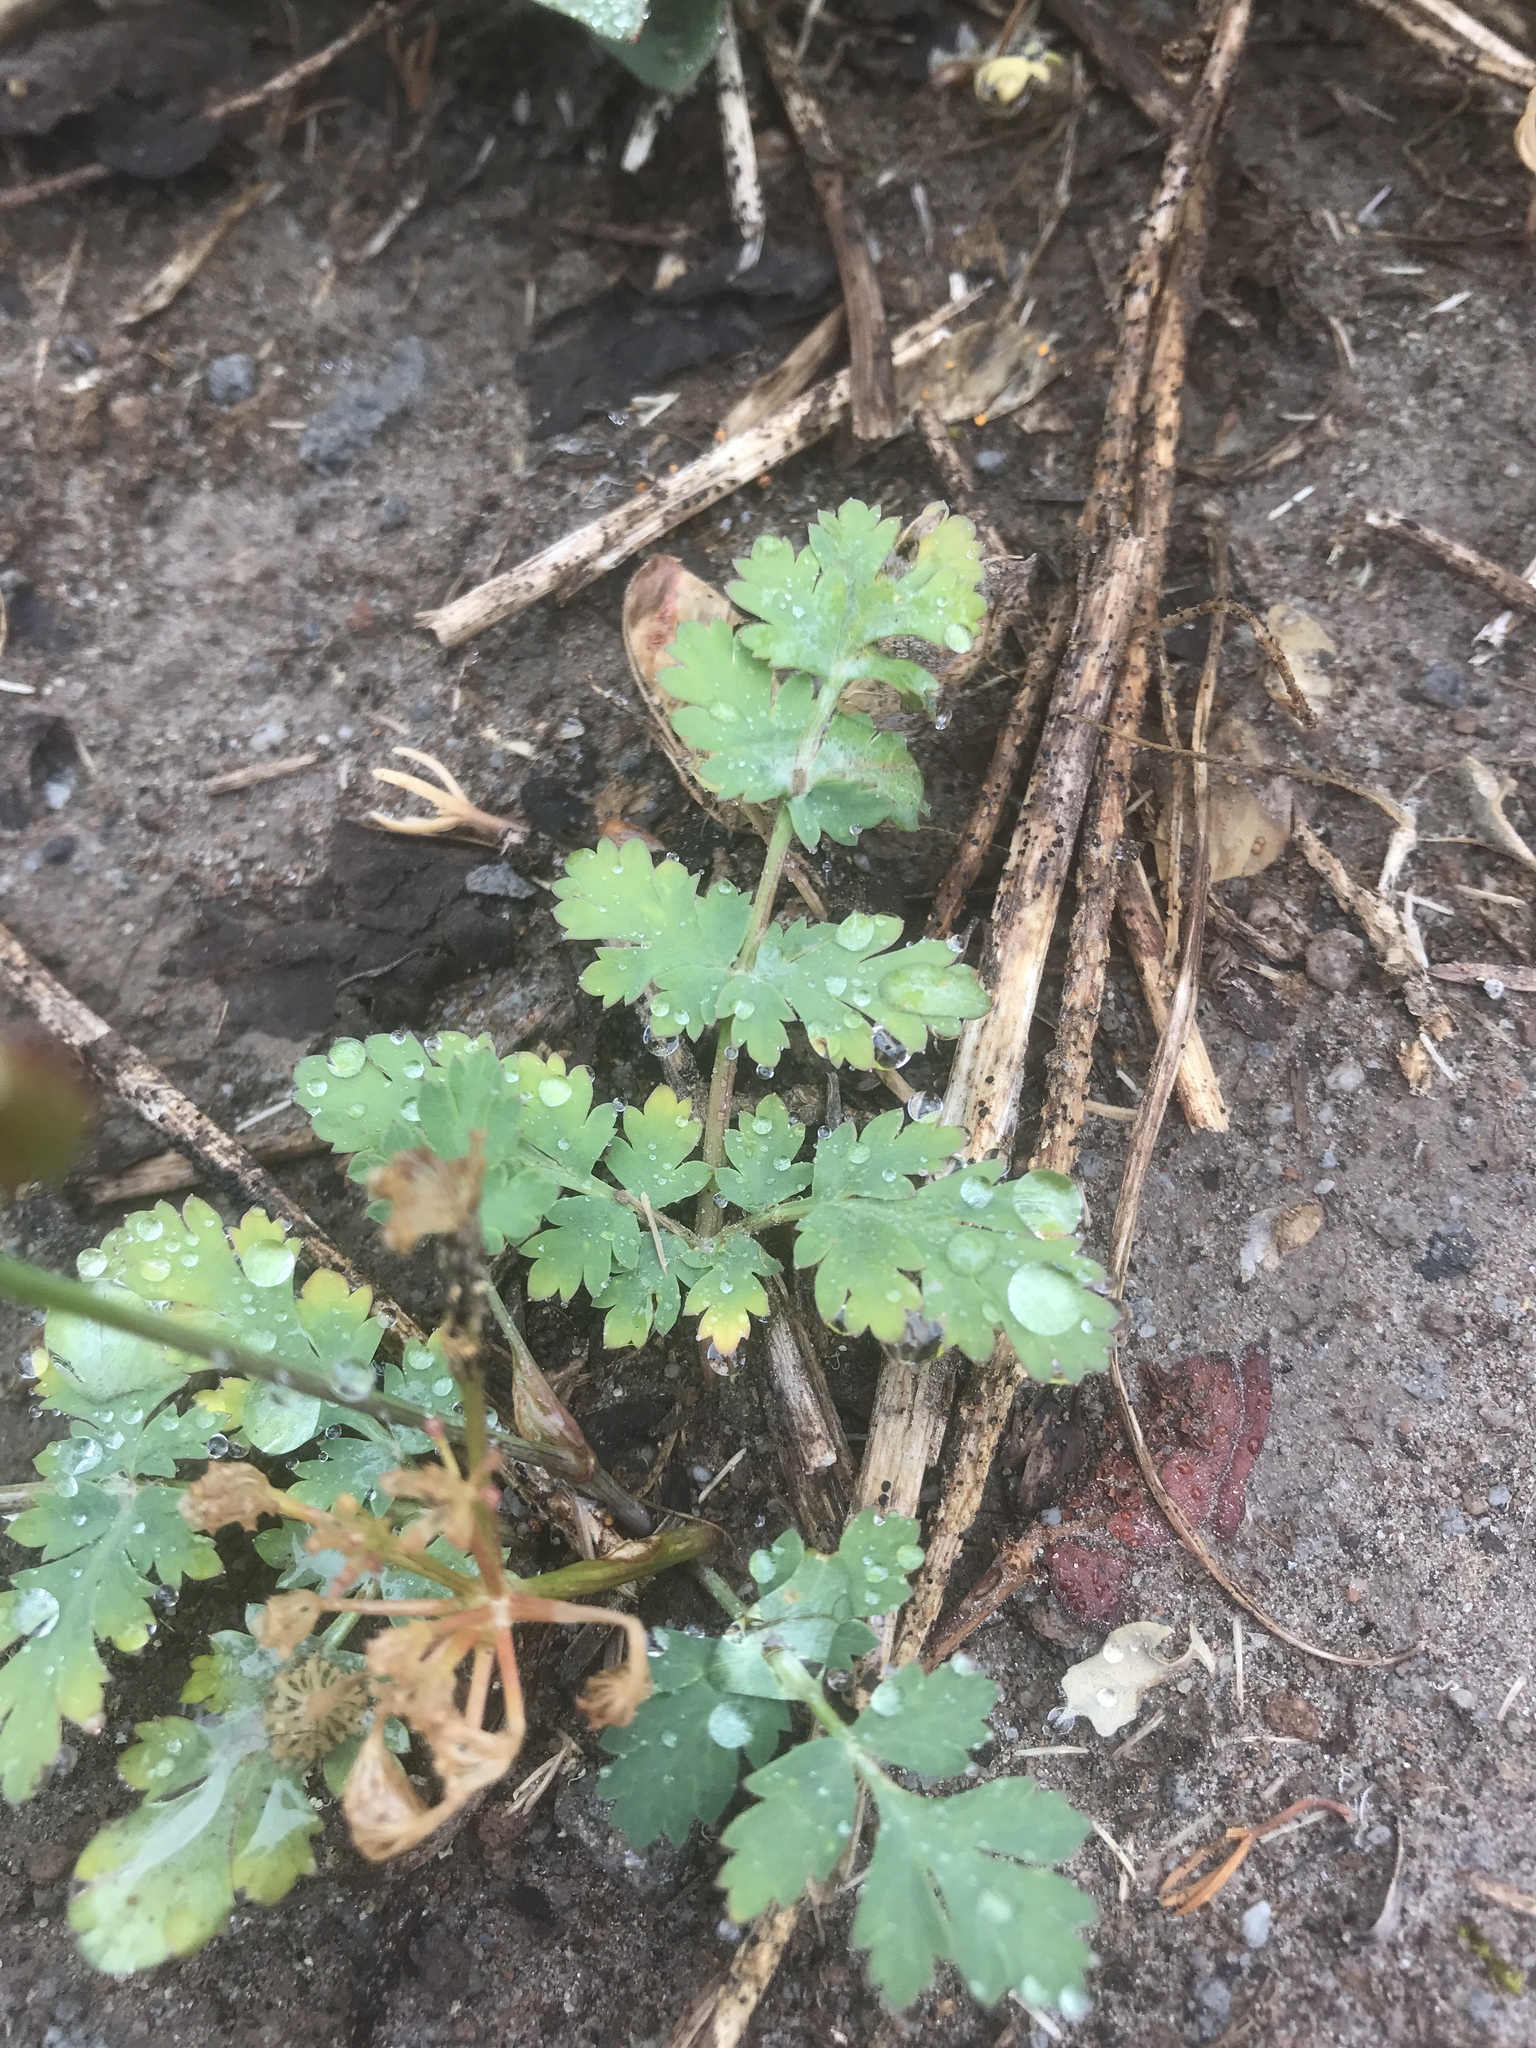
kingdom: Plantae
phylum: Tracheophyta
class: Magnoliopsida
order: Apiales
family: Apiaceae
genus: Lomatium
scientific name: Lomatium martindalei
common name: Cascade desert-parsley
